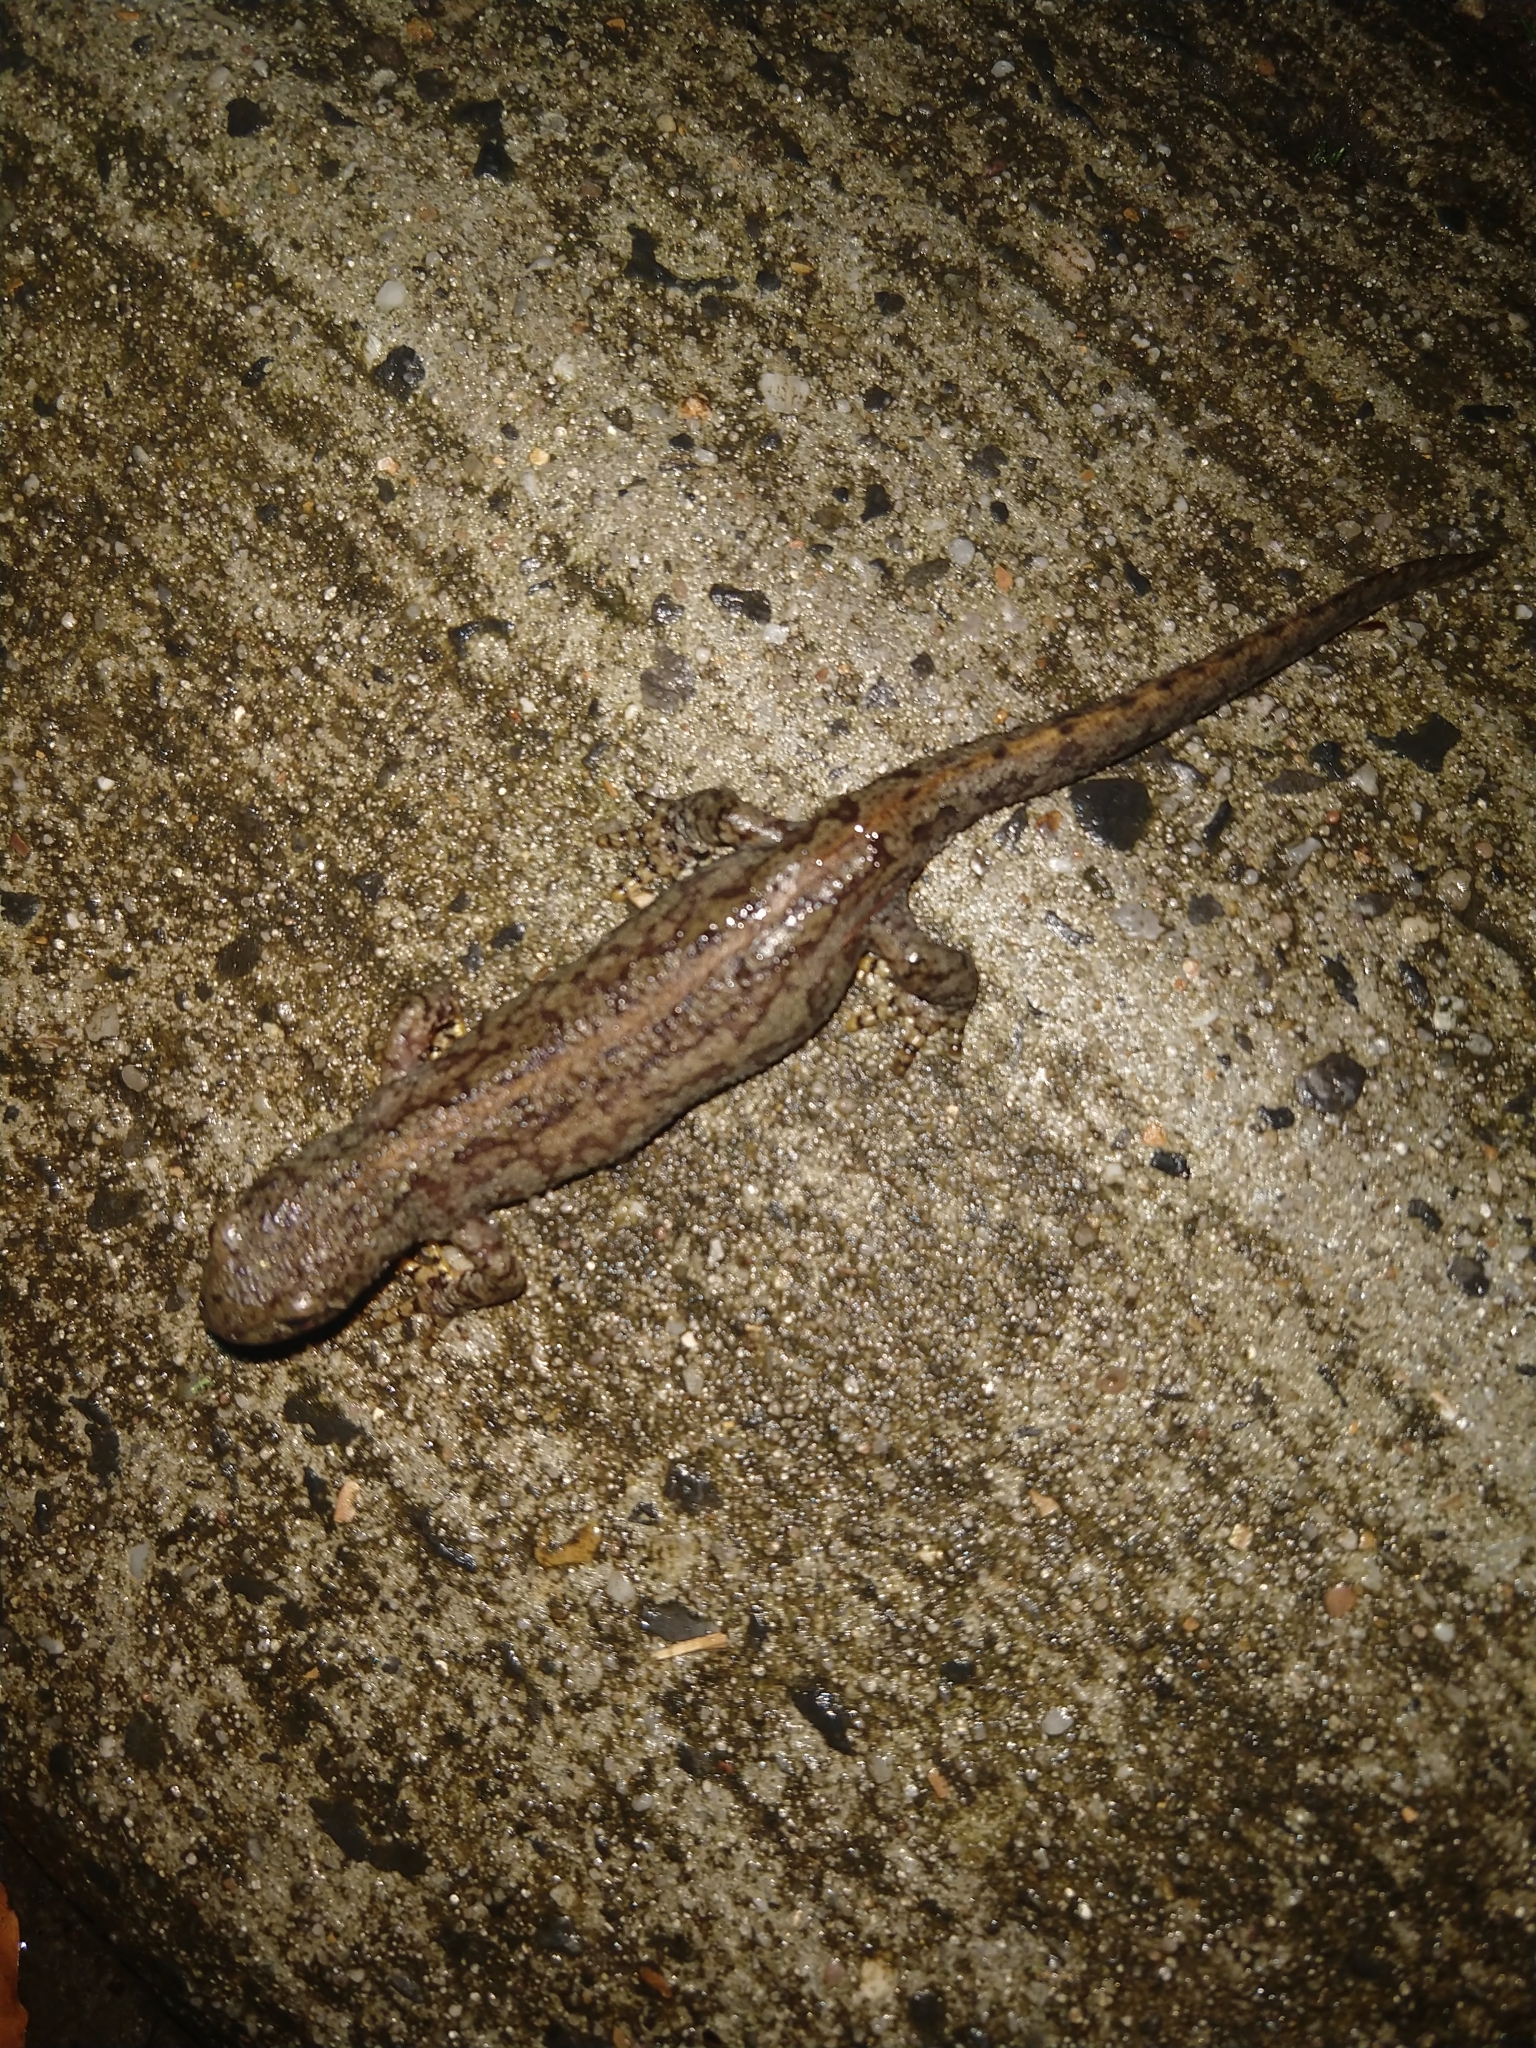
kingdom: Animalia
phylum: Chordata
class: Amphibia
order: Caudata
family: Salamandridae
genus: Ichthyosaura
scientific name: Ichthyosaura alpestris
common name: Alpine newt
